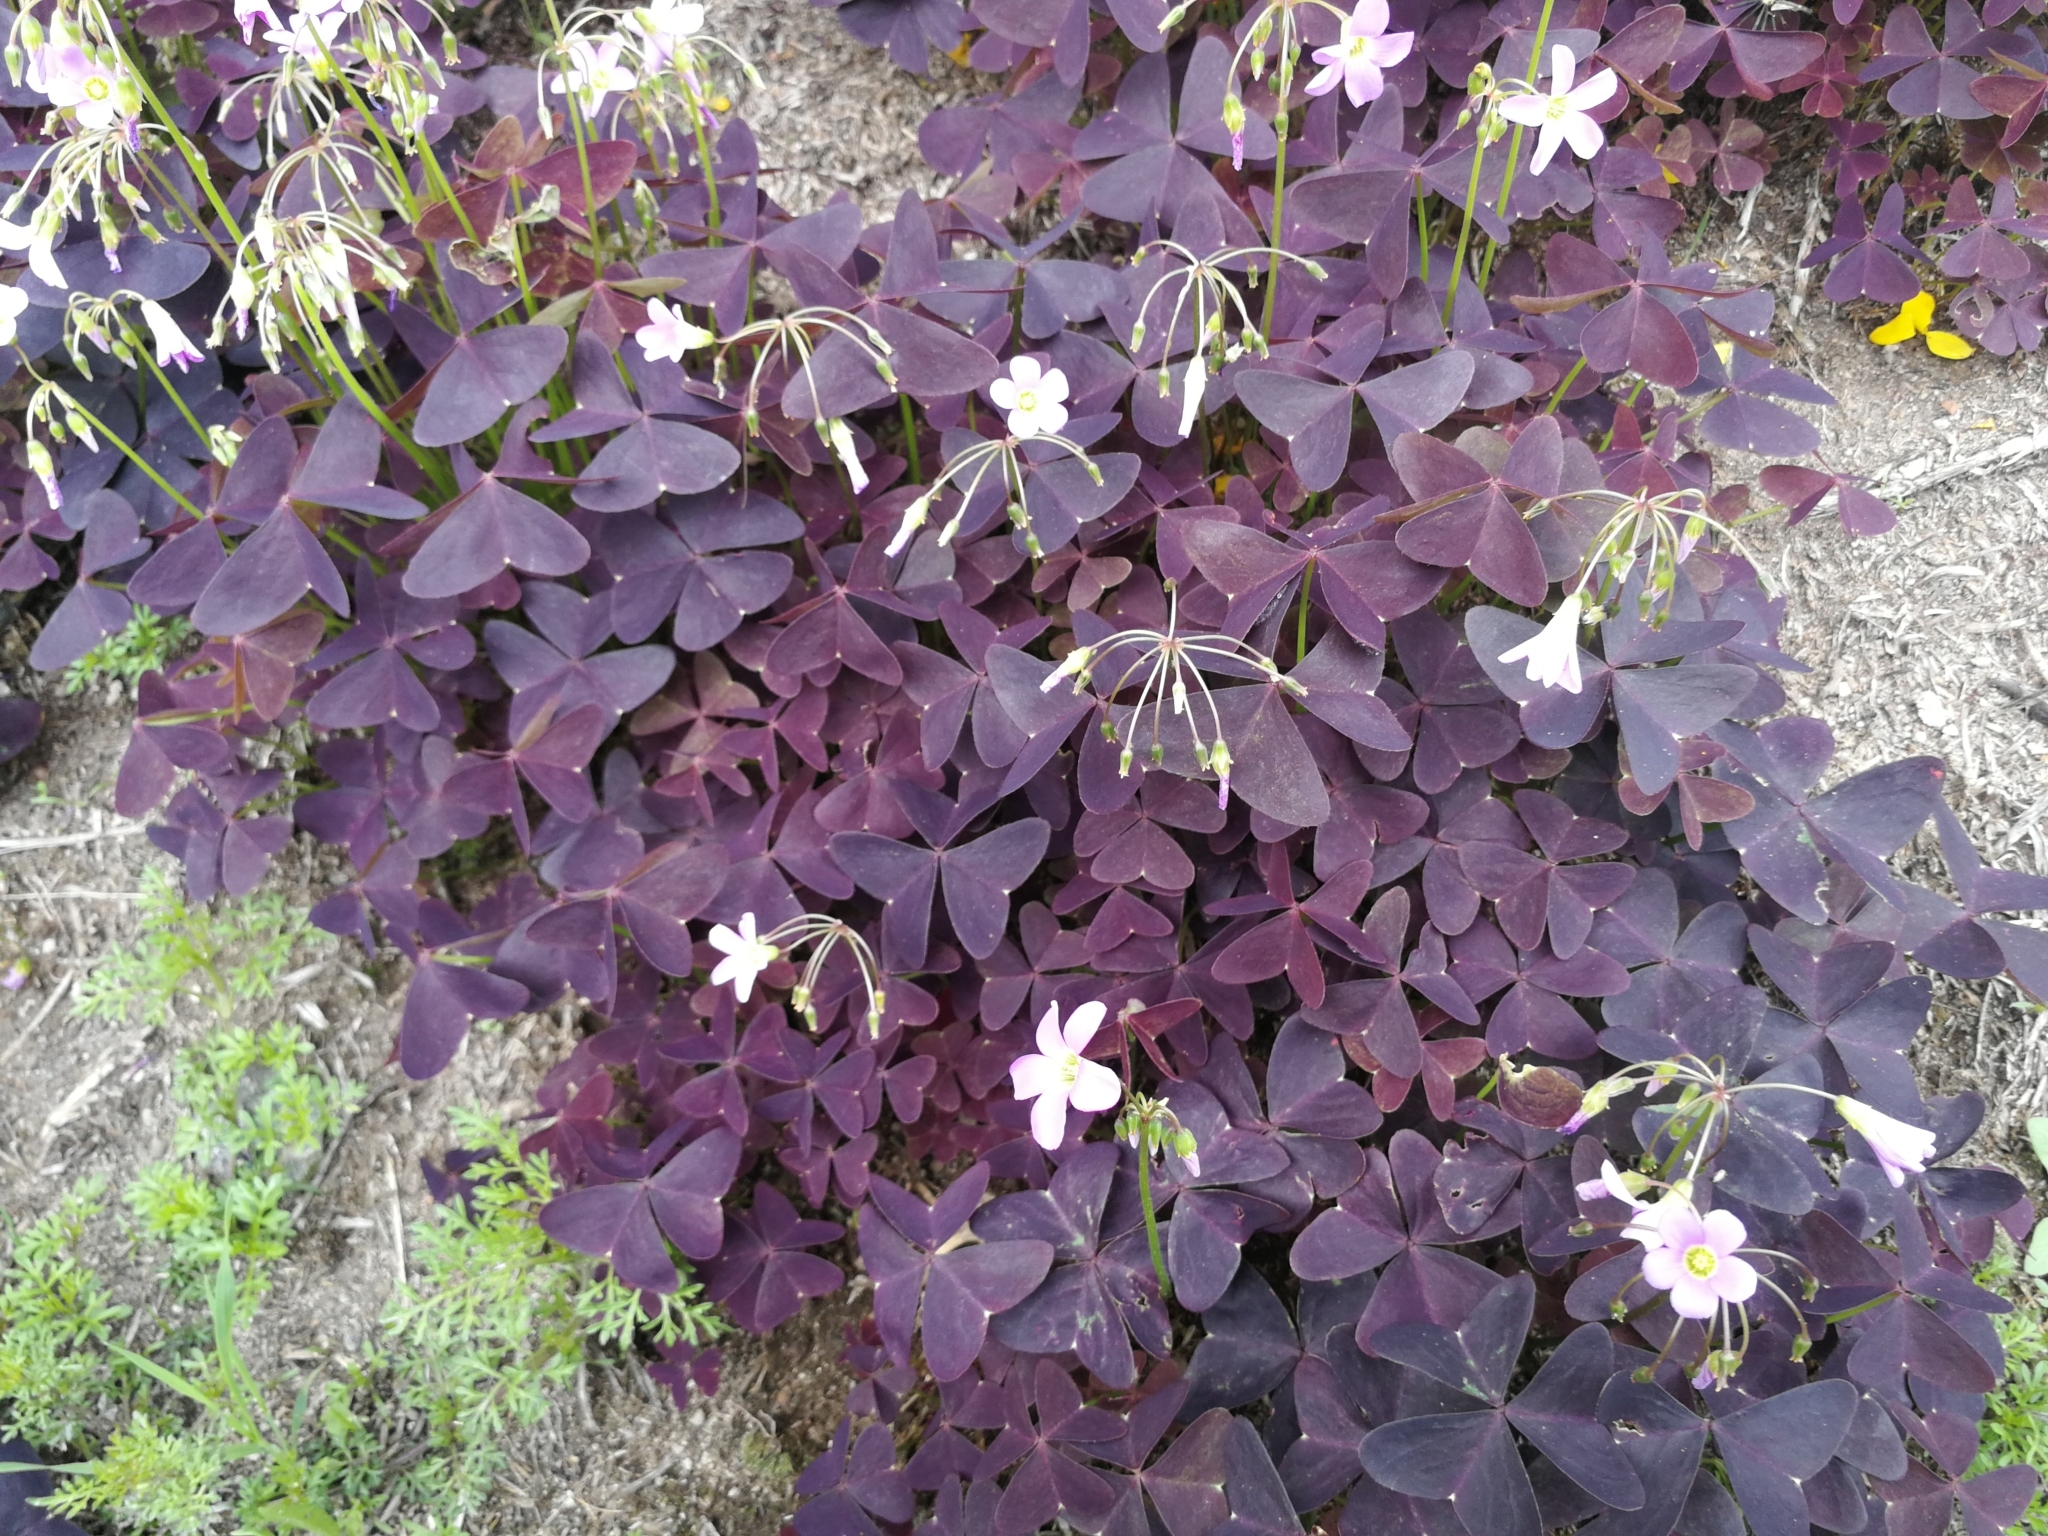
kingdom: Plantae
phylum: Tracheophyta
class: Magnoliopsida
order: Oxalidales
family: Oxalidaceae
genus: Oxalis
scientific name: Oxalis triangularis
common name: Wood sorrel
